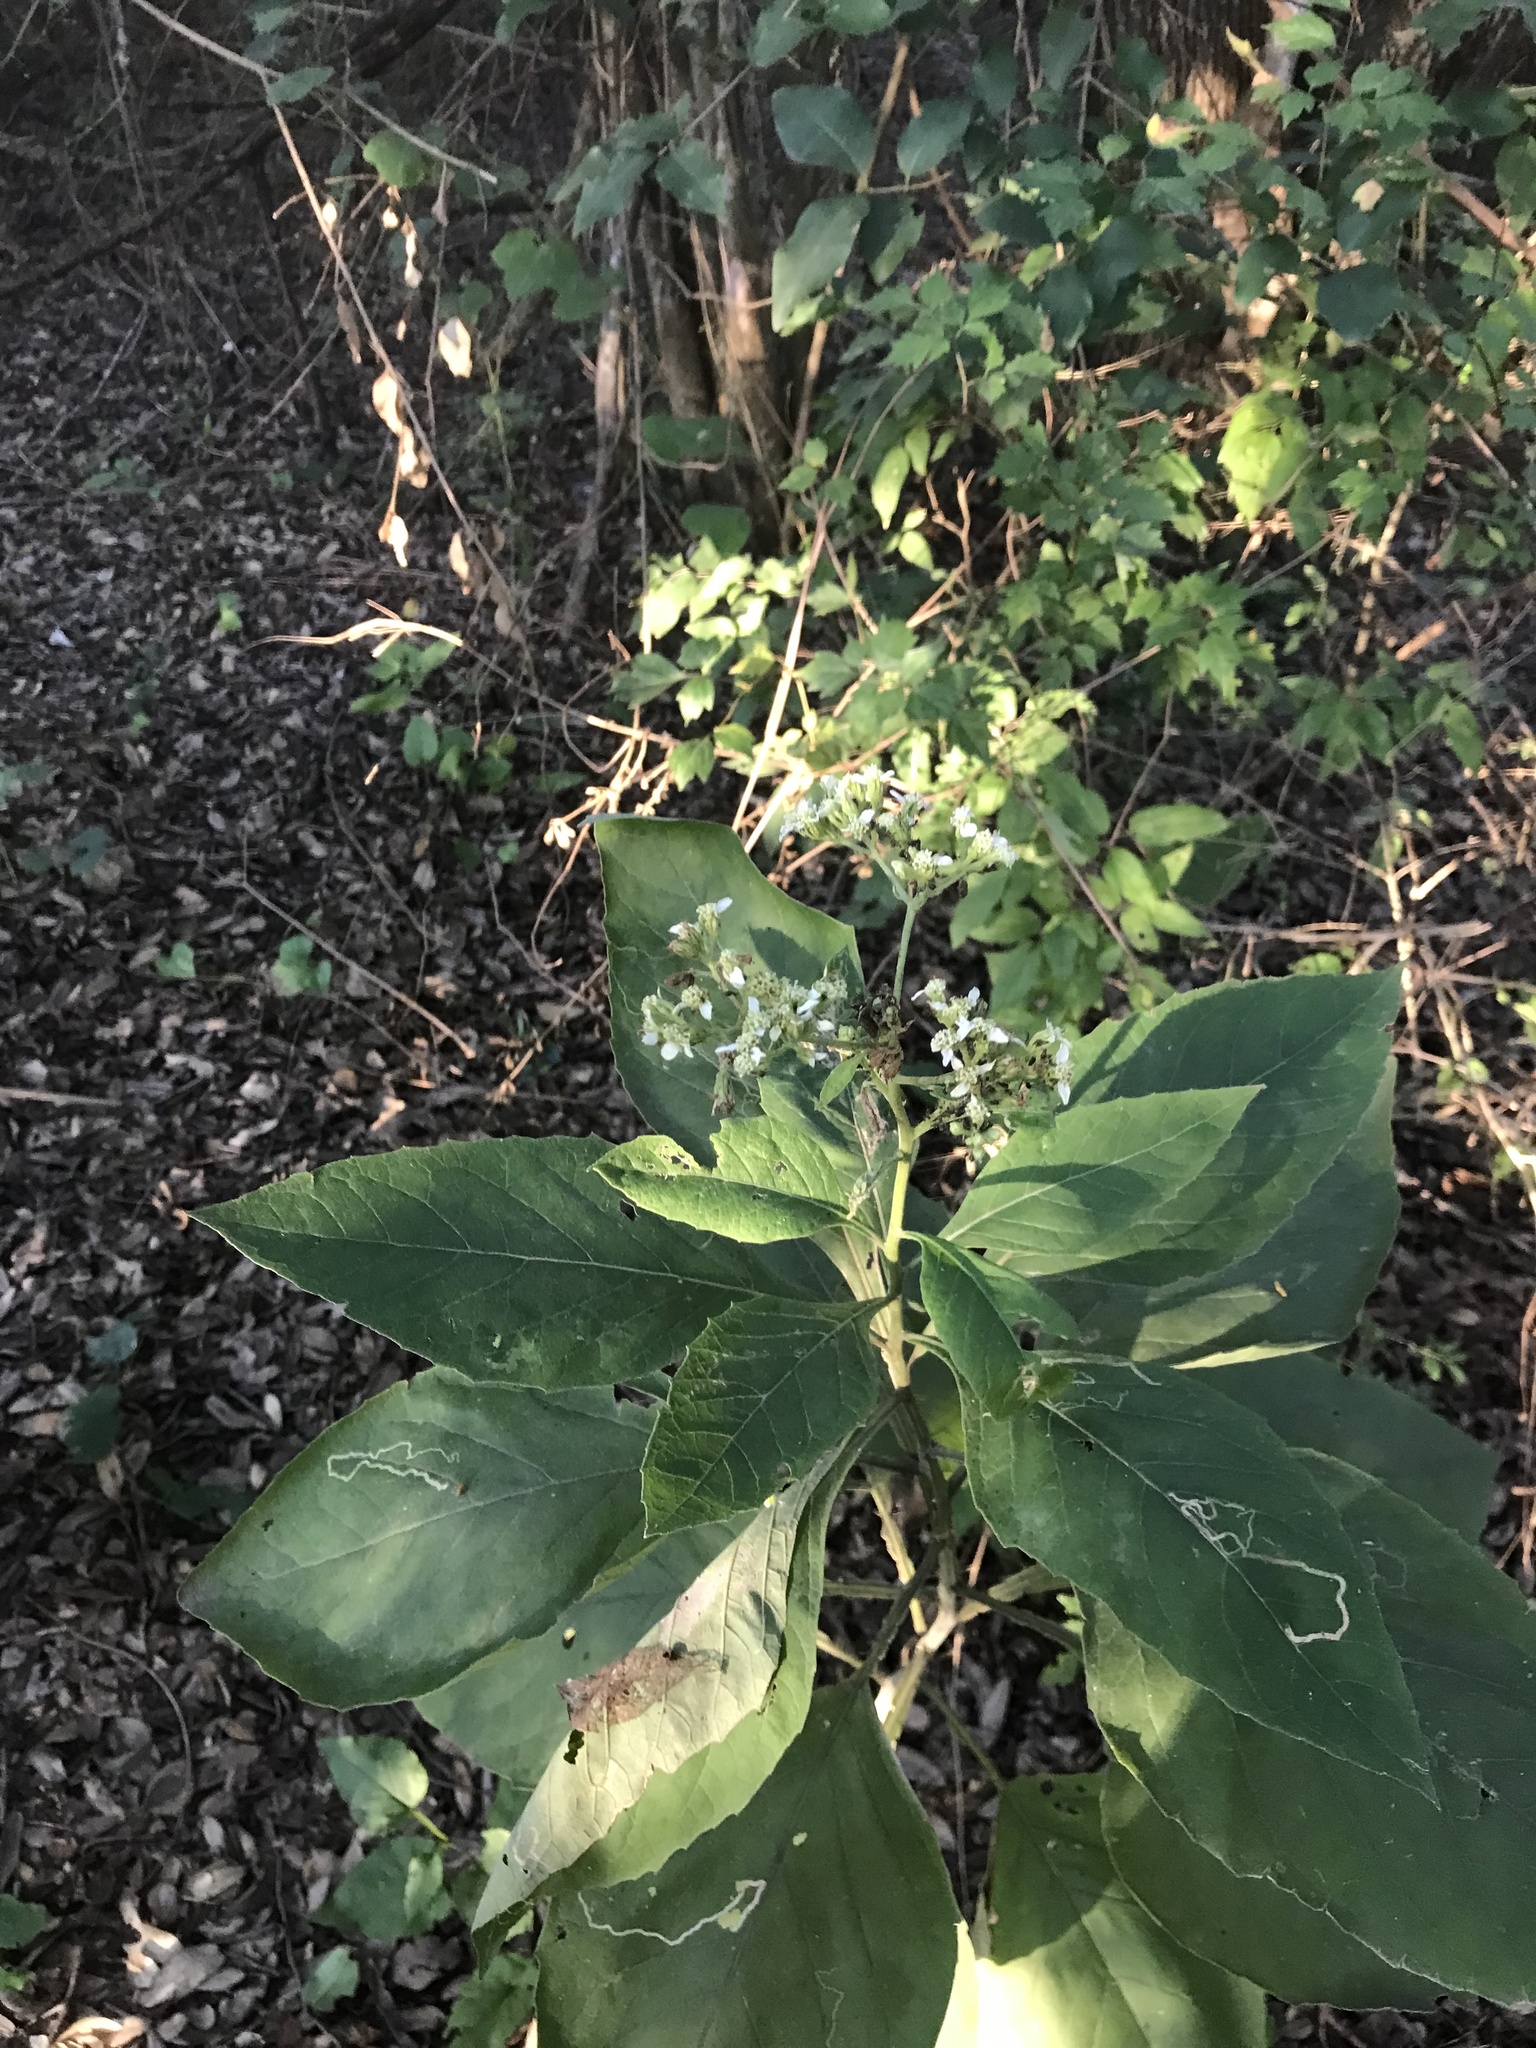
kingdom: Plantae
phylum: Tracheophyta
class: Magnoliopsida
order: Asterales
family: Asteraceae
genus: Verbesina
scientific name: Verbesina virginica
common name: Frostweed
